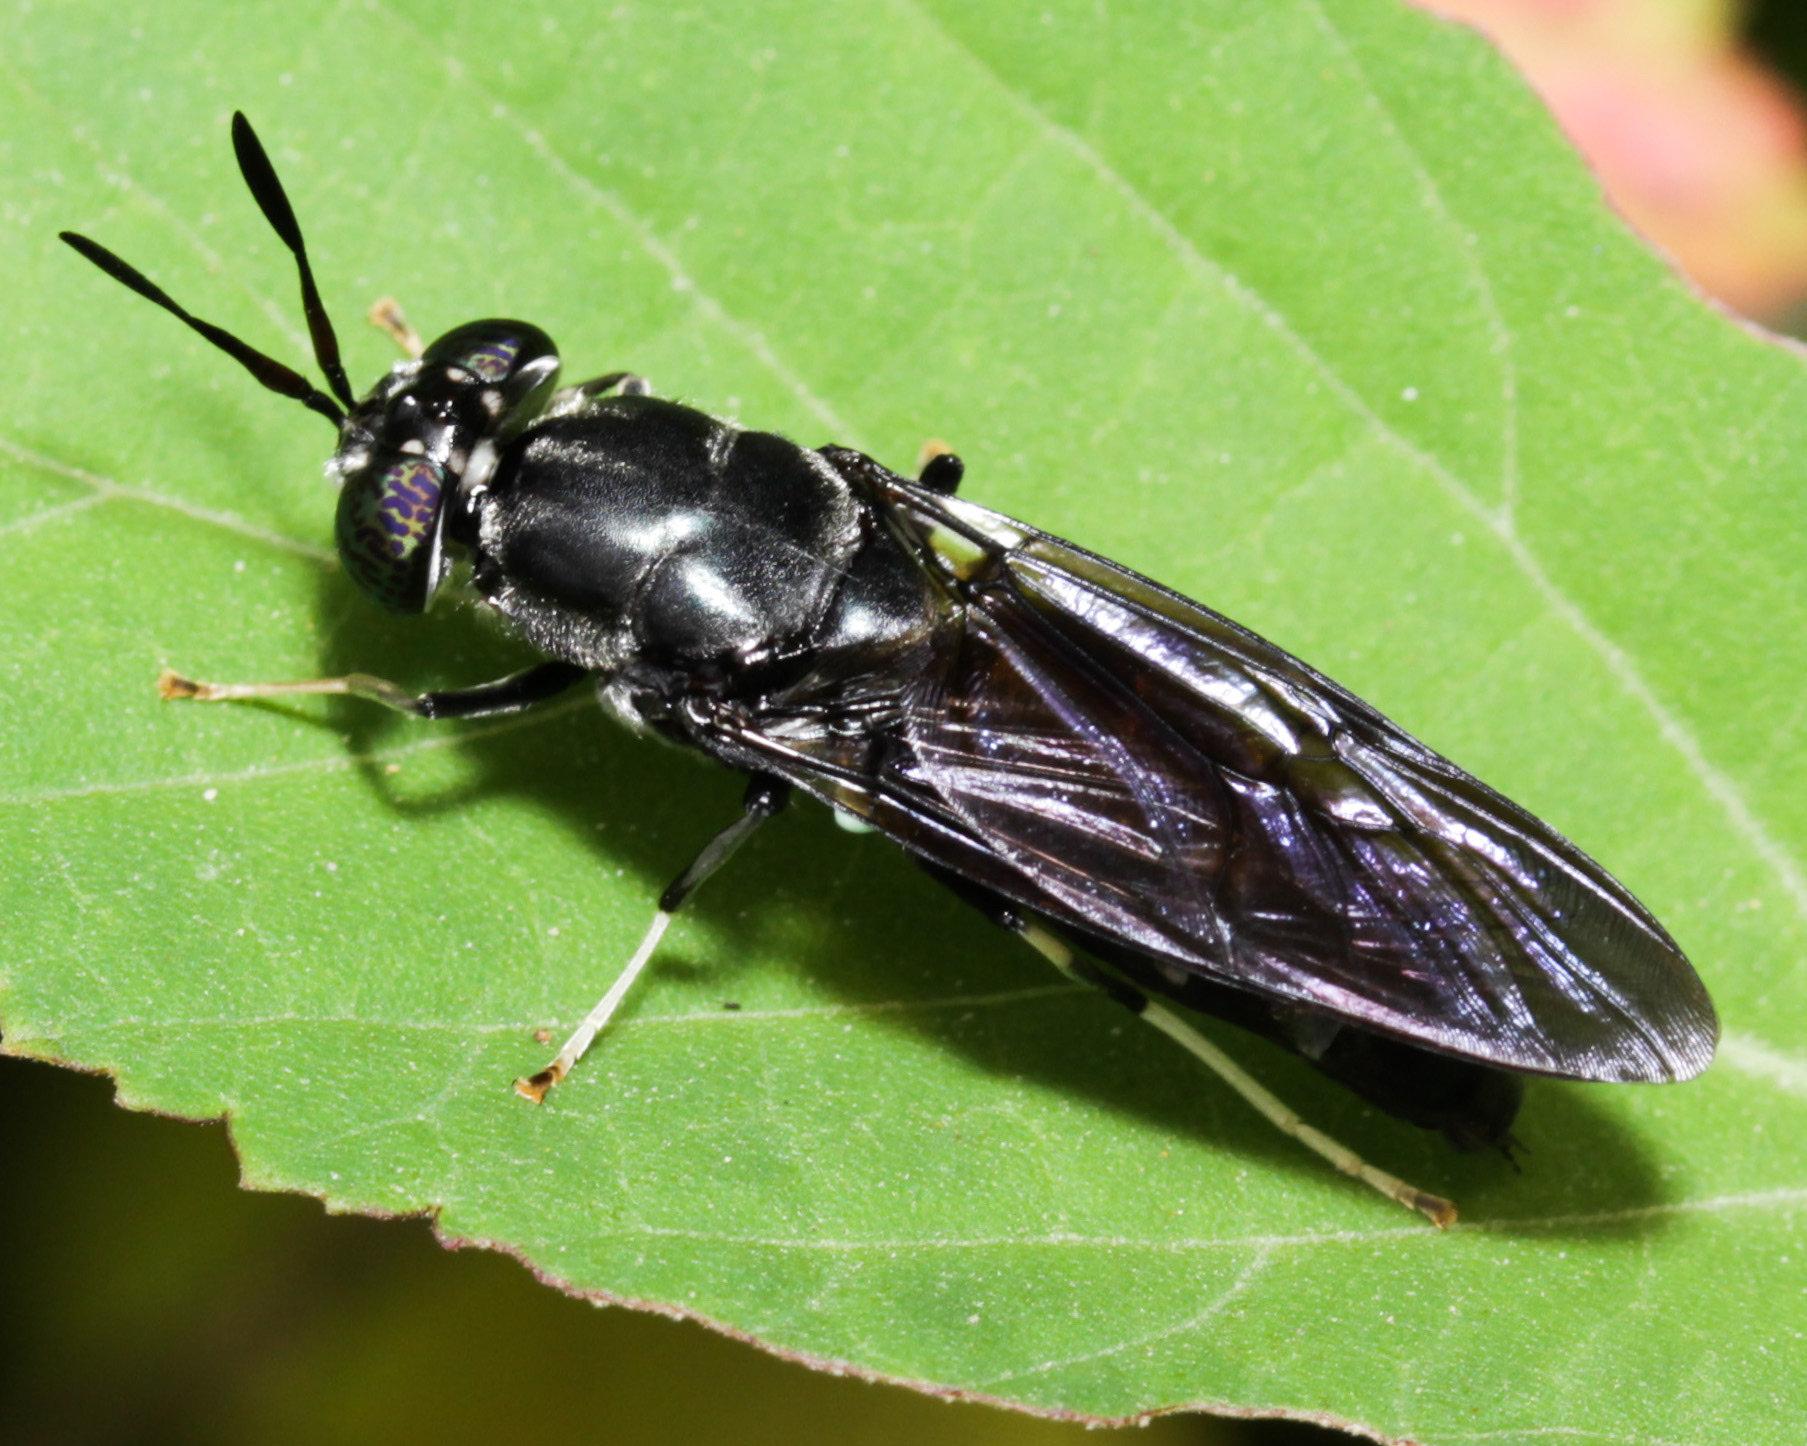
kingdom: Animalia
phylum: Arthropoda
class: Insecta
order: Diptera
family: Stratiomyidae
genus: Hermetia
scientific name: Hermetia illucens
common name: Black soldier fly
